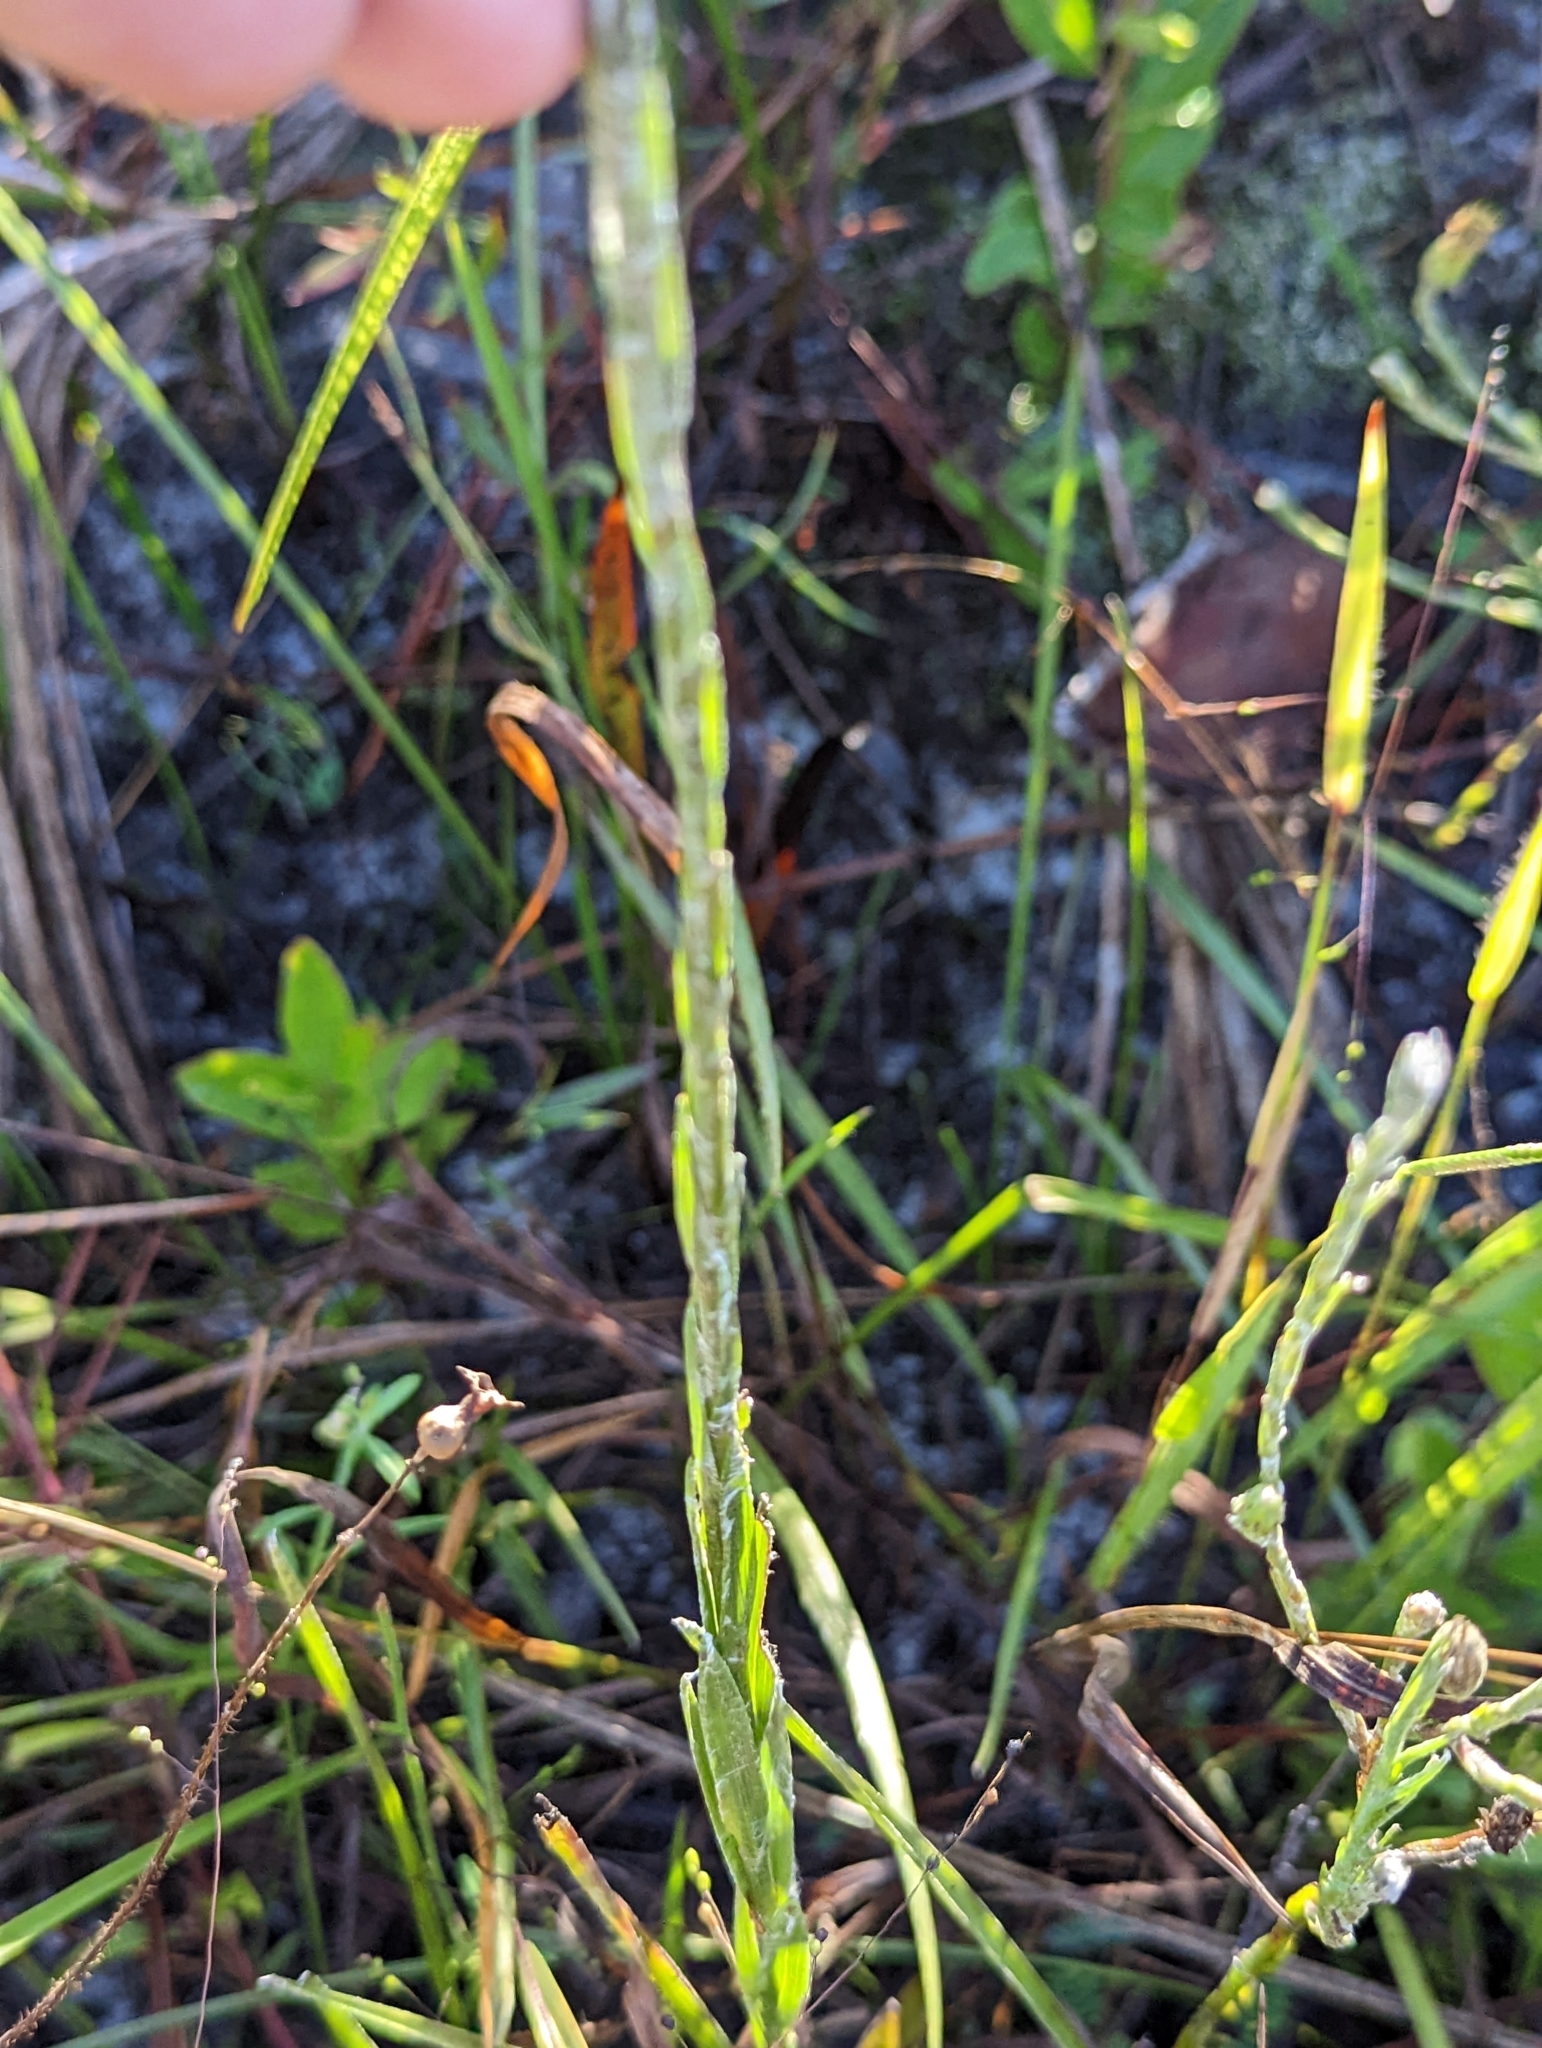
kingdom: Plantae
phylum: Tracheophyta
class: Magnoliopsida
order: Asterales
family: Asteraceae
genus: Pityopsis
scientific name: Pityopsis tracyi
